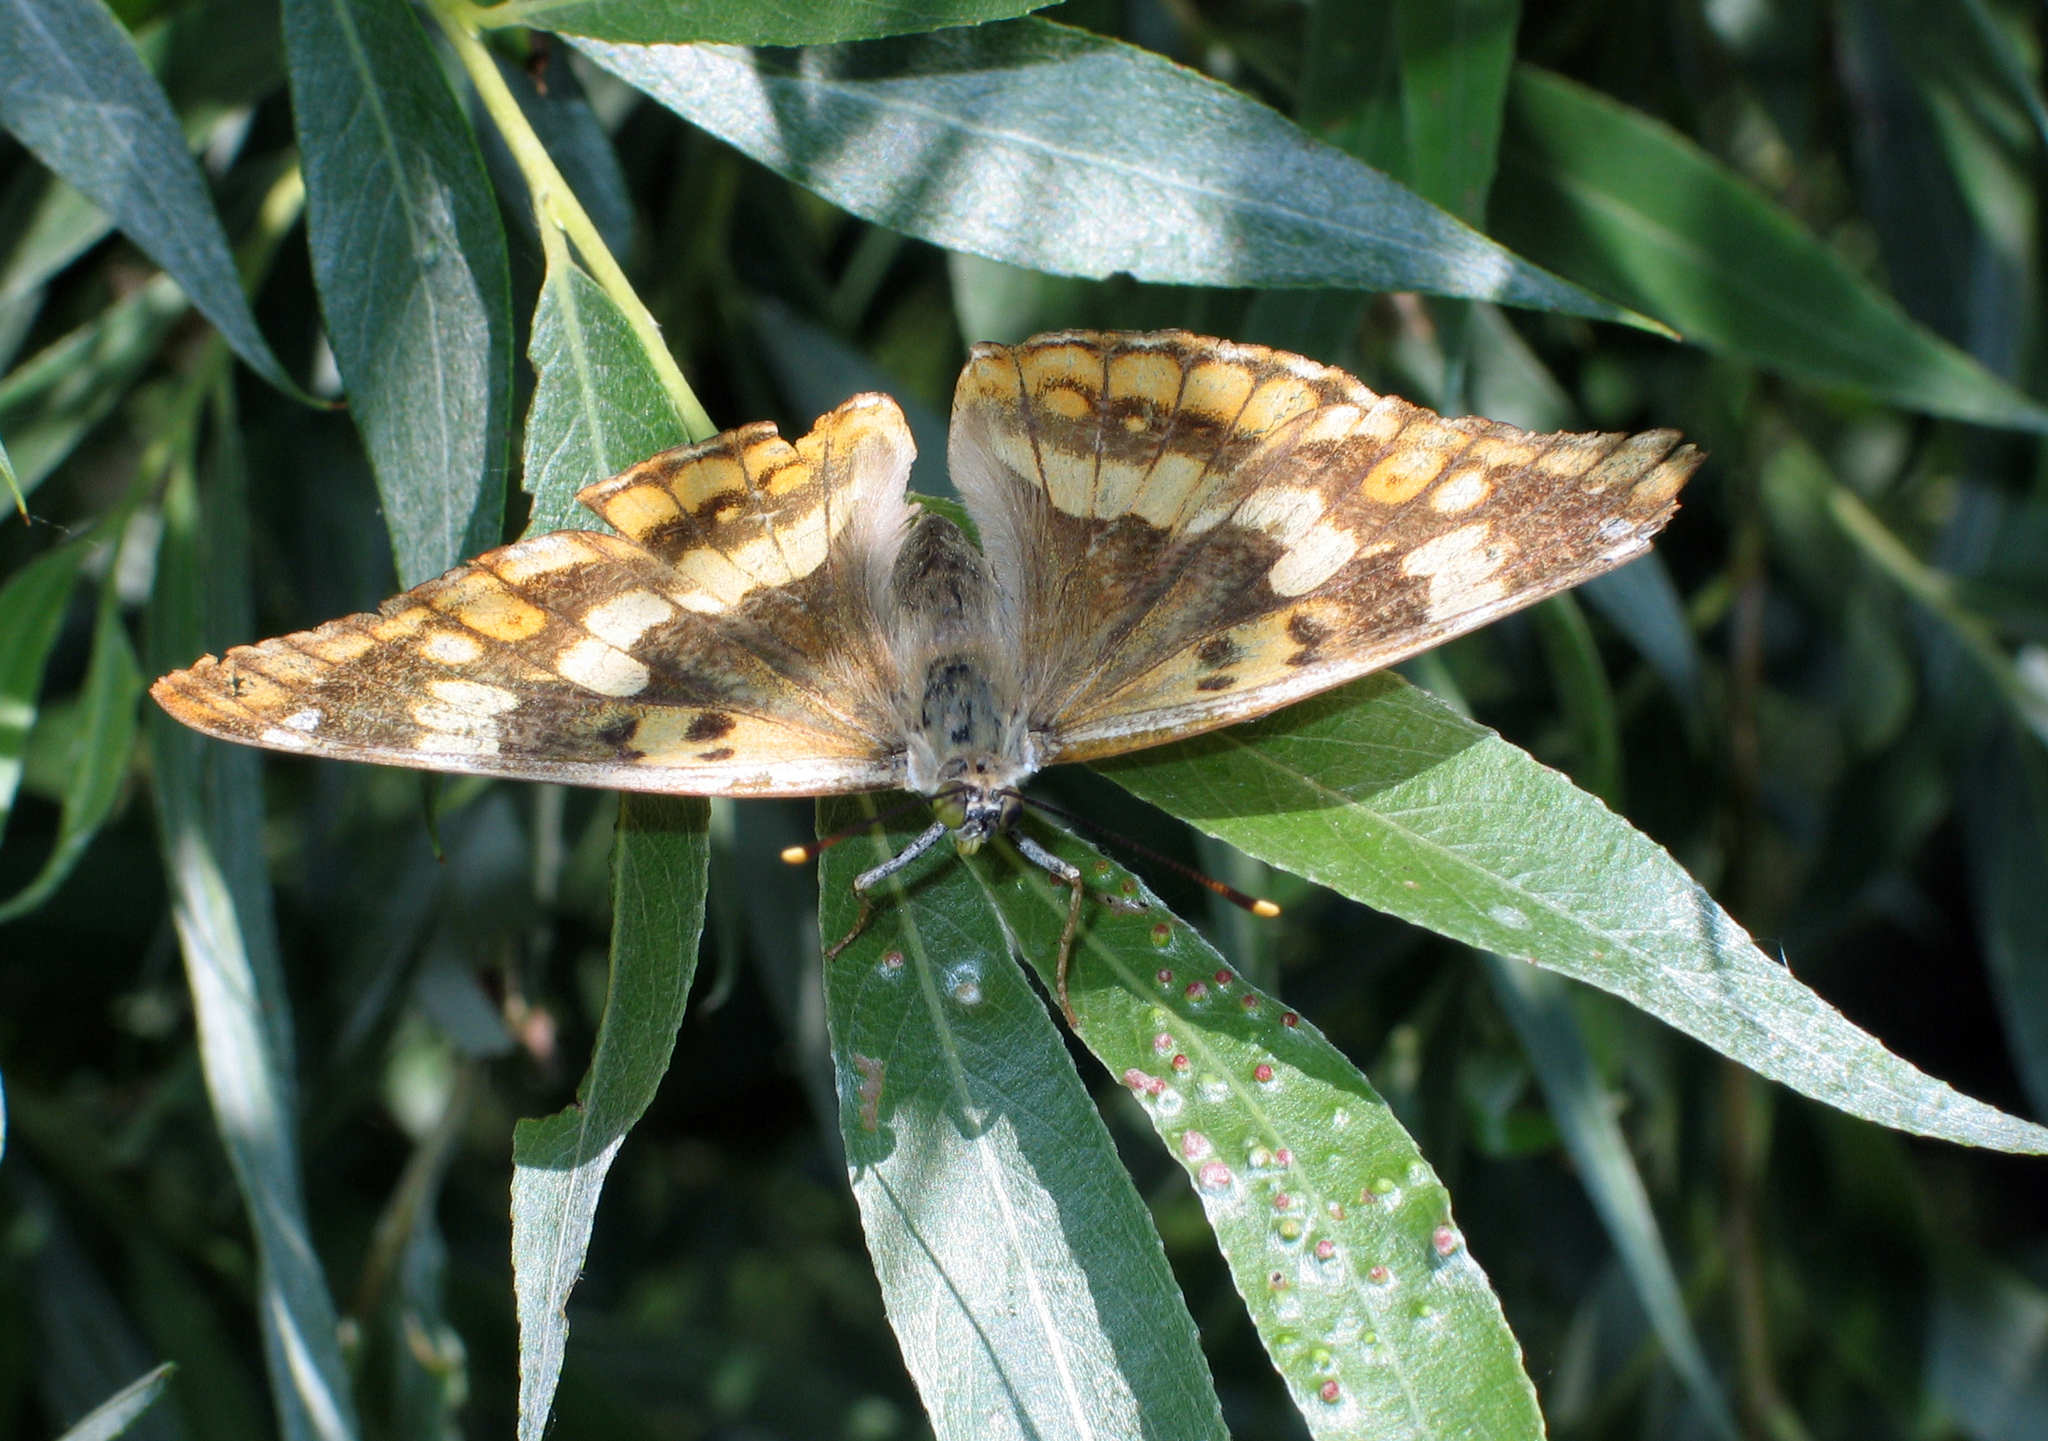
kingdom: Animalia
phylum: Arthropoda
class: Insecta
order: Lepidoptera
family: Nymphalidae
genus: Apatura
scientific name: Apatura ilia
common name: Lesser purple emperor
